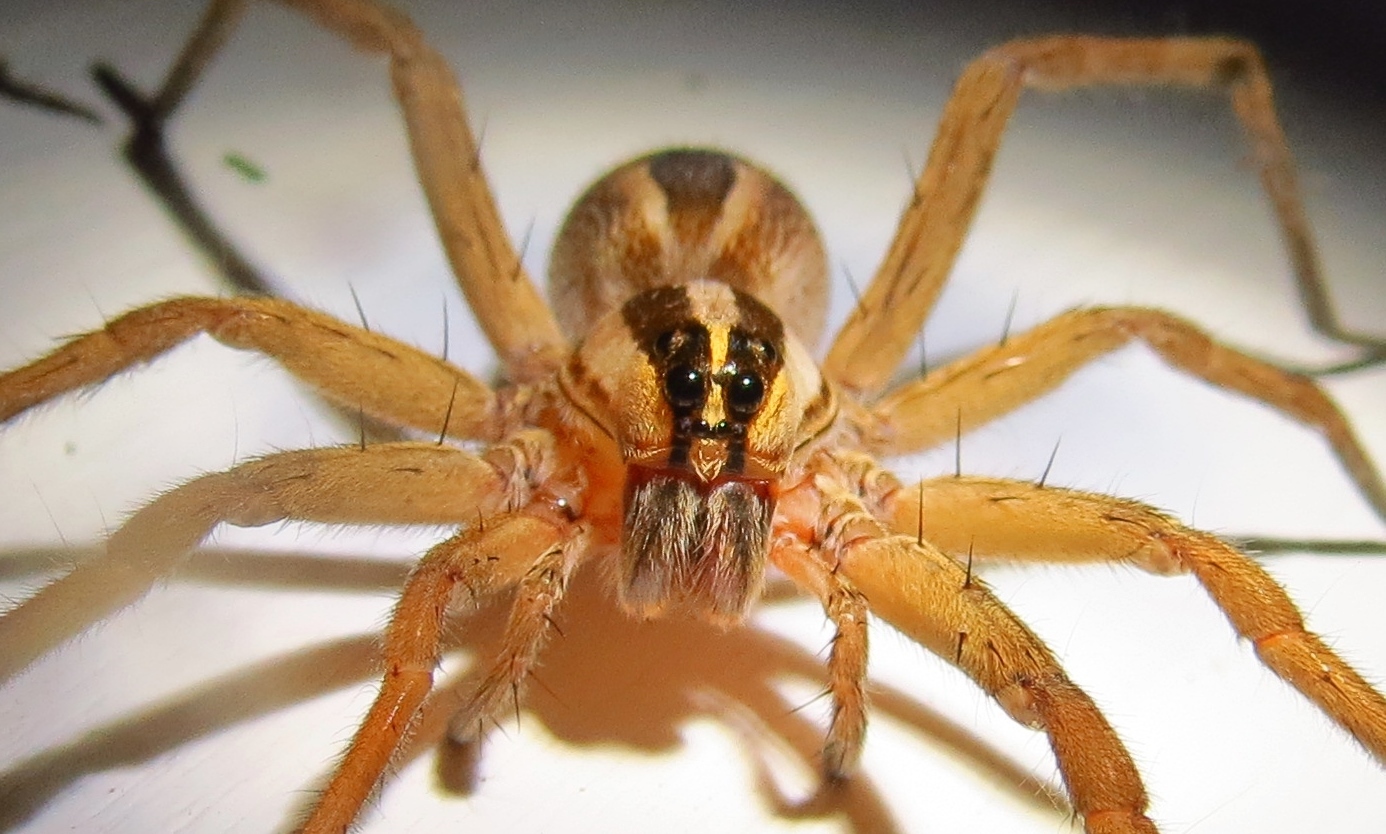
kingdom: Animalia
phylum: Arthropoda
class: Arachnida
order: Araneae
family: Lycosidae
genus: Rabidosa
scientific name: Rabidosa rabida
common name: Rabid wolf spider
